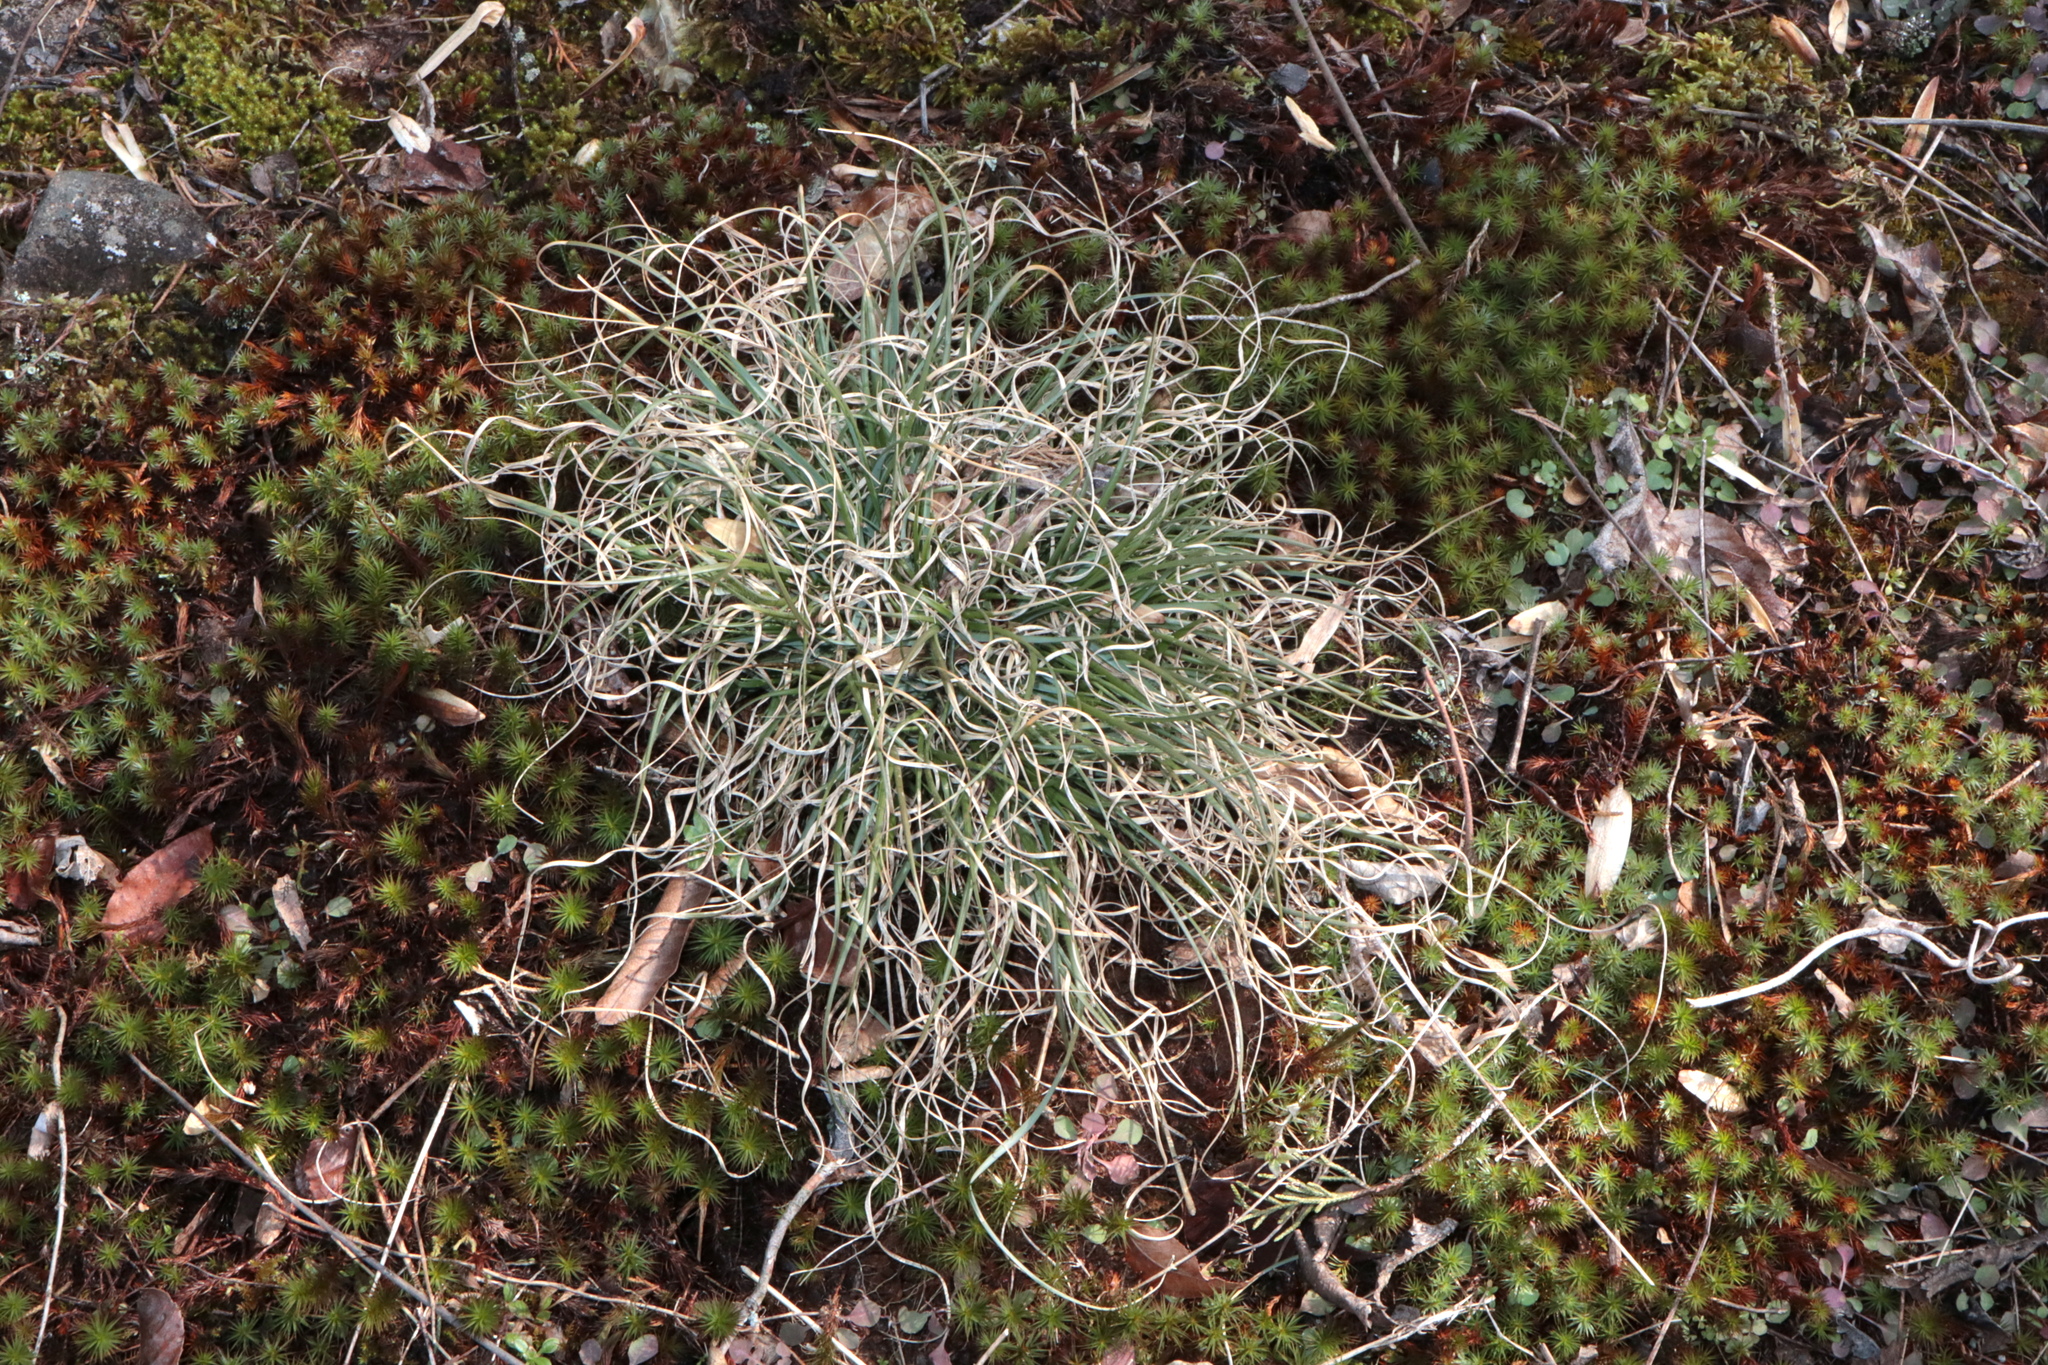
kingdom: Plantae
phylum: Tracheophyta
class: Liliopsida
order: Poales
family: Poaceae
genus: Danthonia
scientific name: Danthonia spicata
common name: Common wild oatgrass
